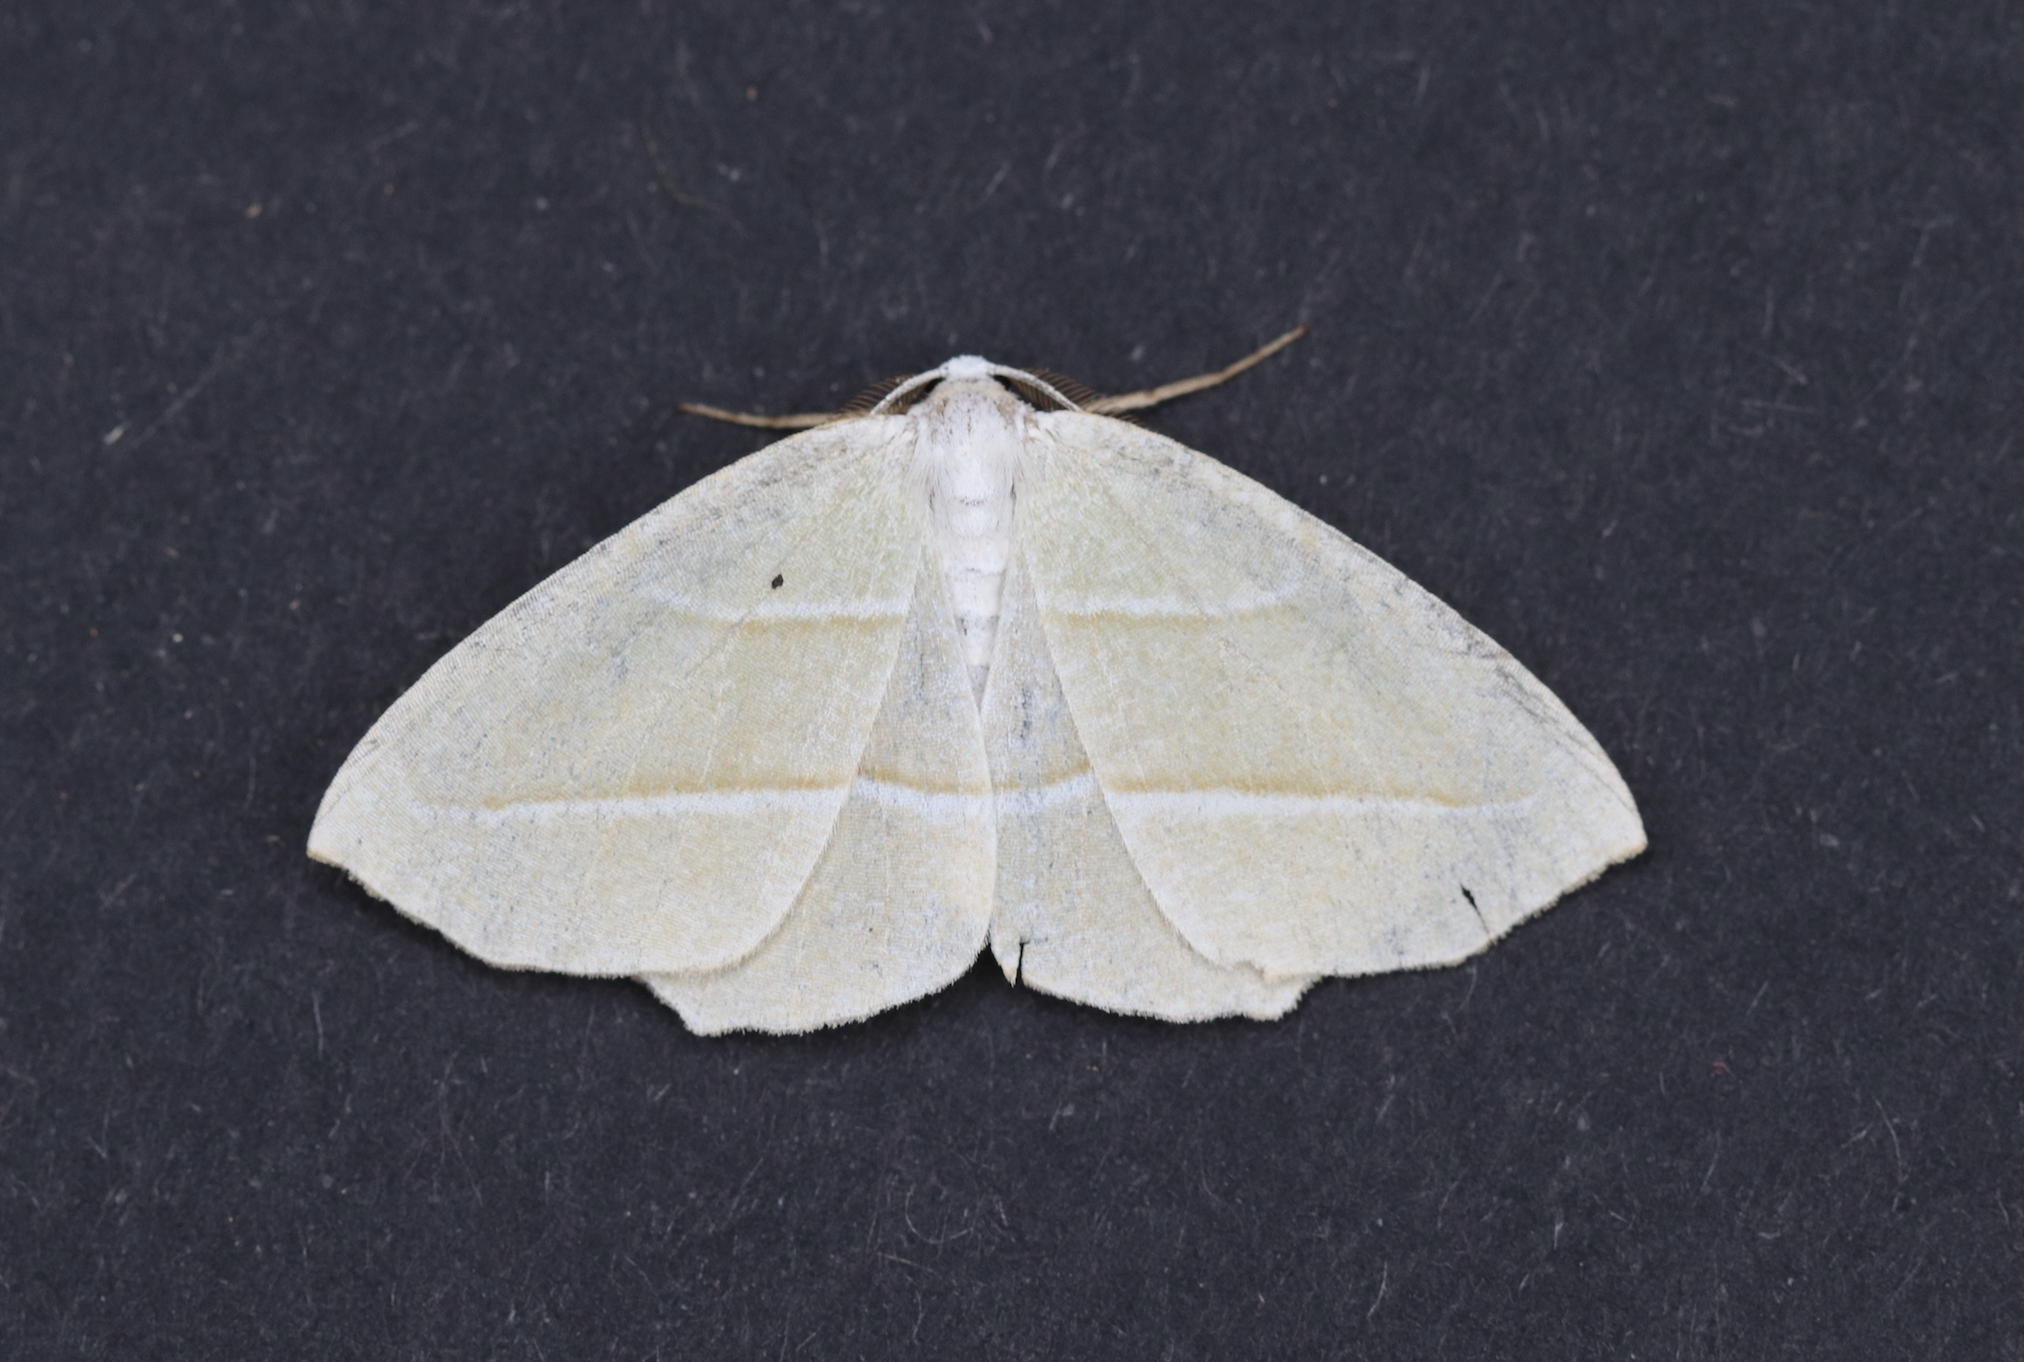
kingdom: Animalia
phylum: Arthropoda
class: Insecta
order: Lepidoptera
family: Geometridae
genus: Campaea
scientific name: Campaea perlata
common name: Fringed looper
